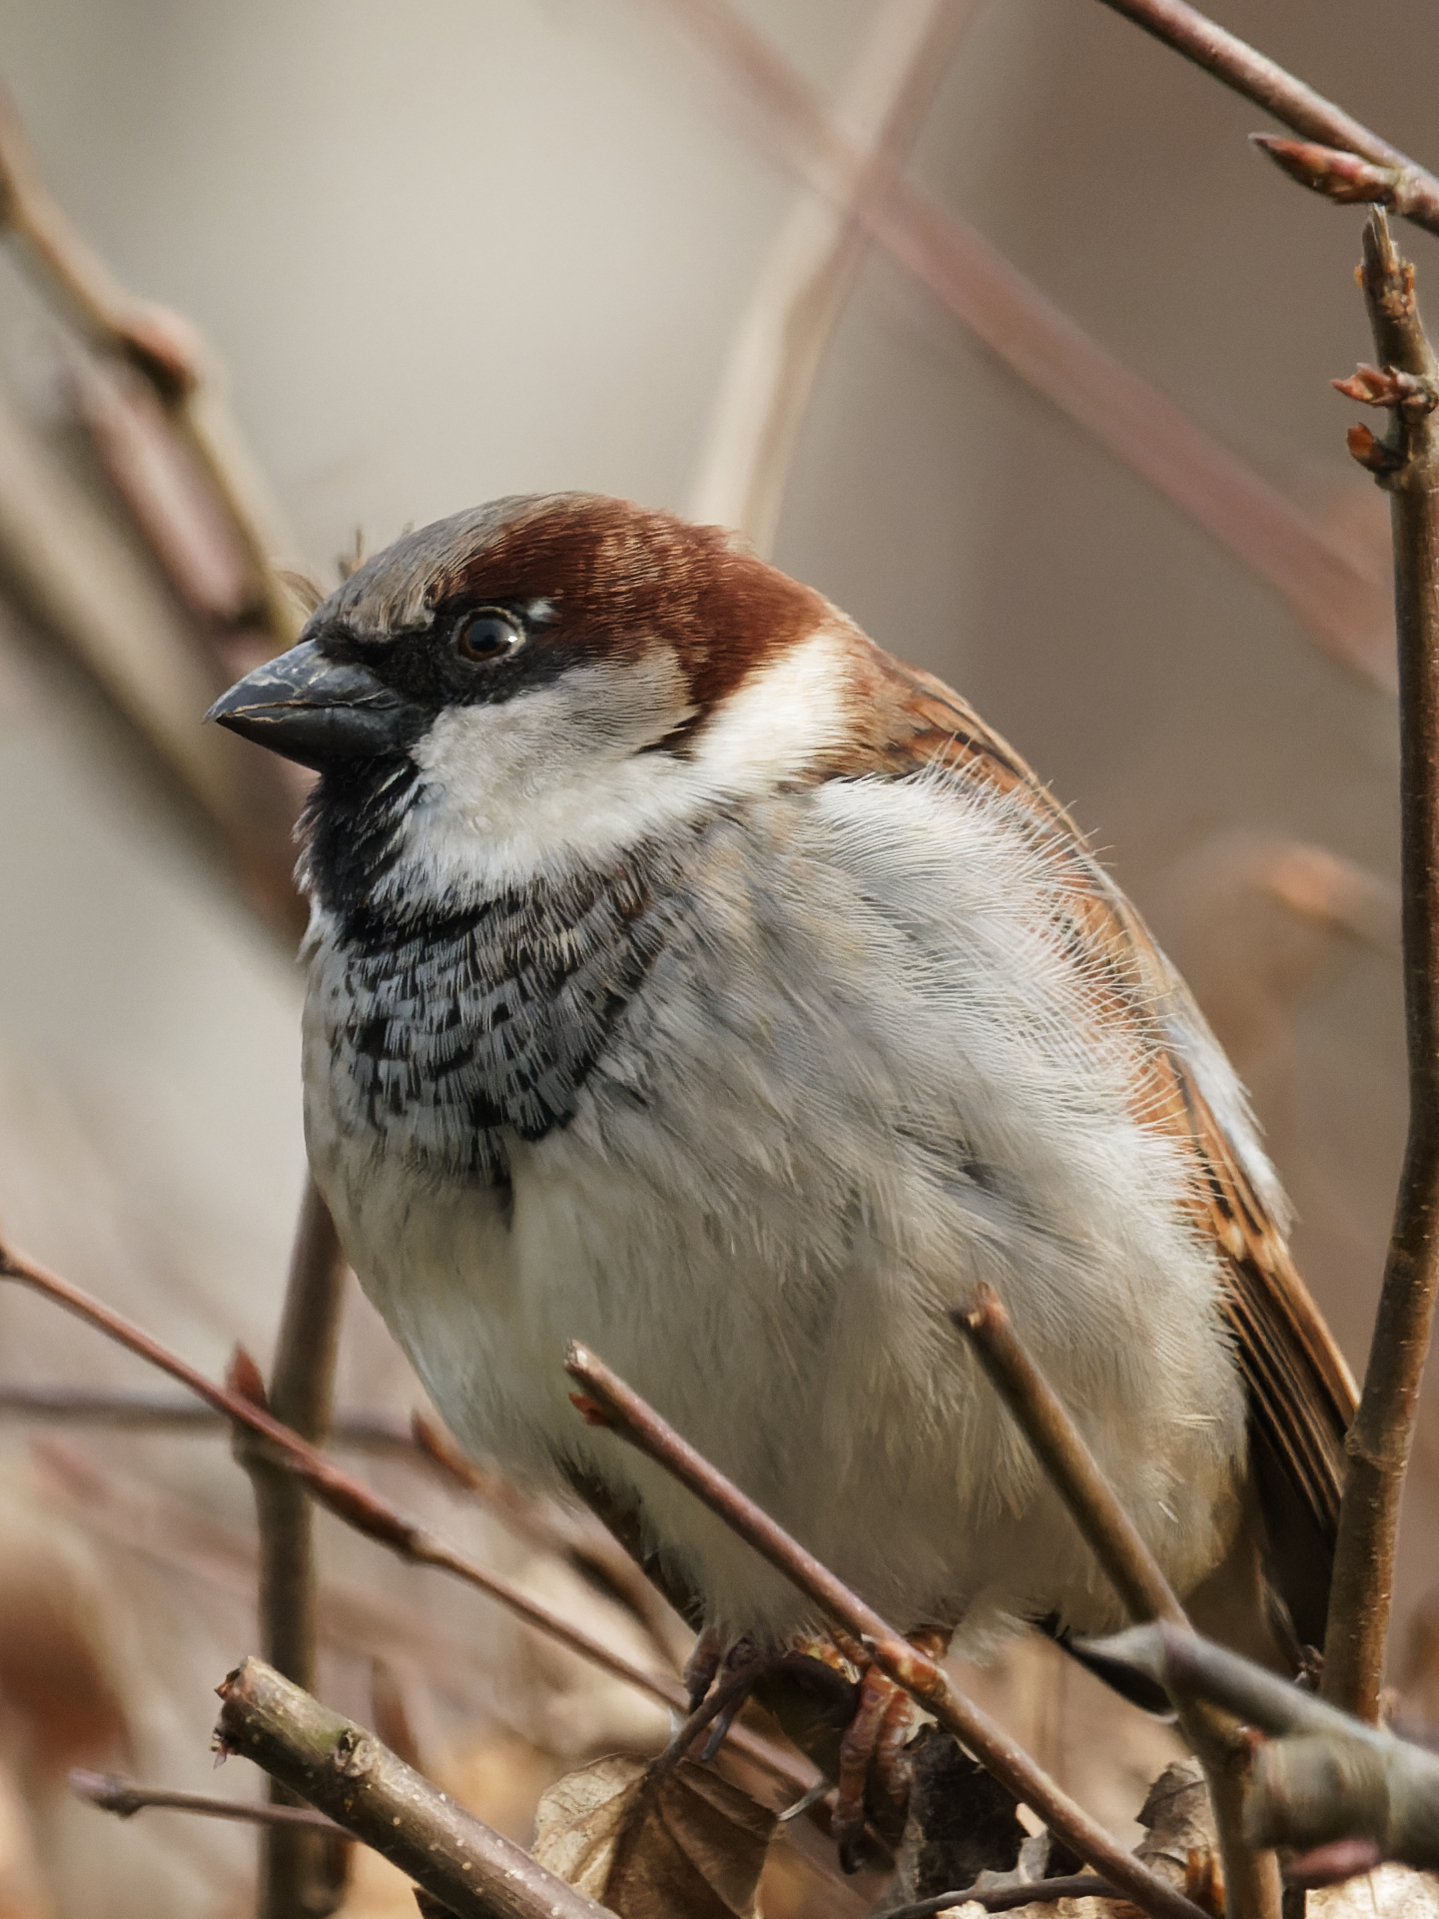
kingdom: Animalia
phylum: Chordata
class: Aves
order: Passeriformes
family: Passeridae
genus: Passer
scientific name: Passer domesticus
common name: House sparrow
